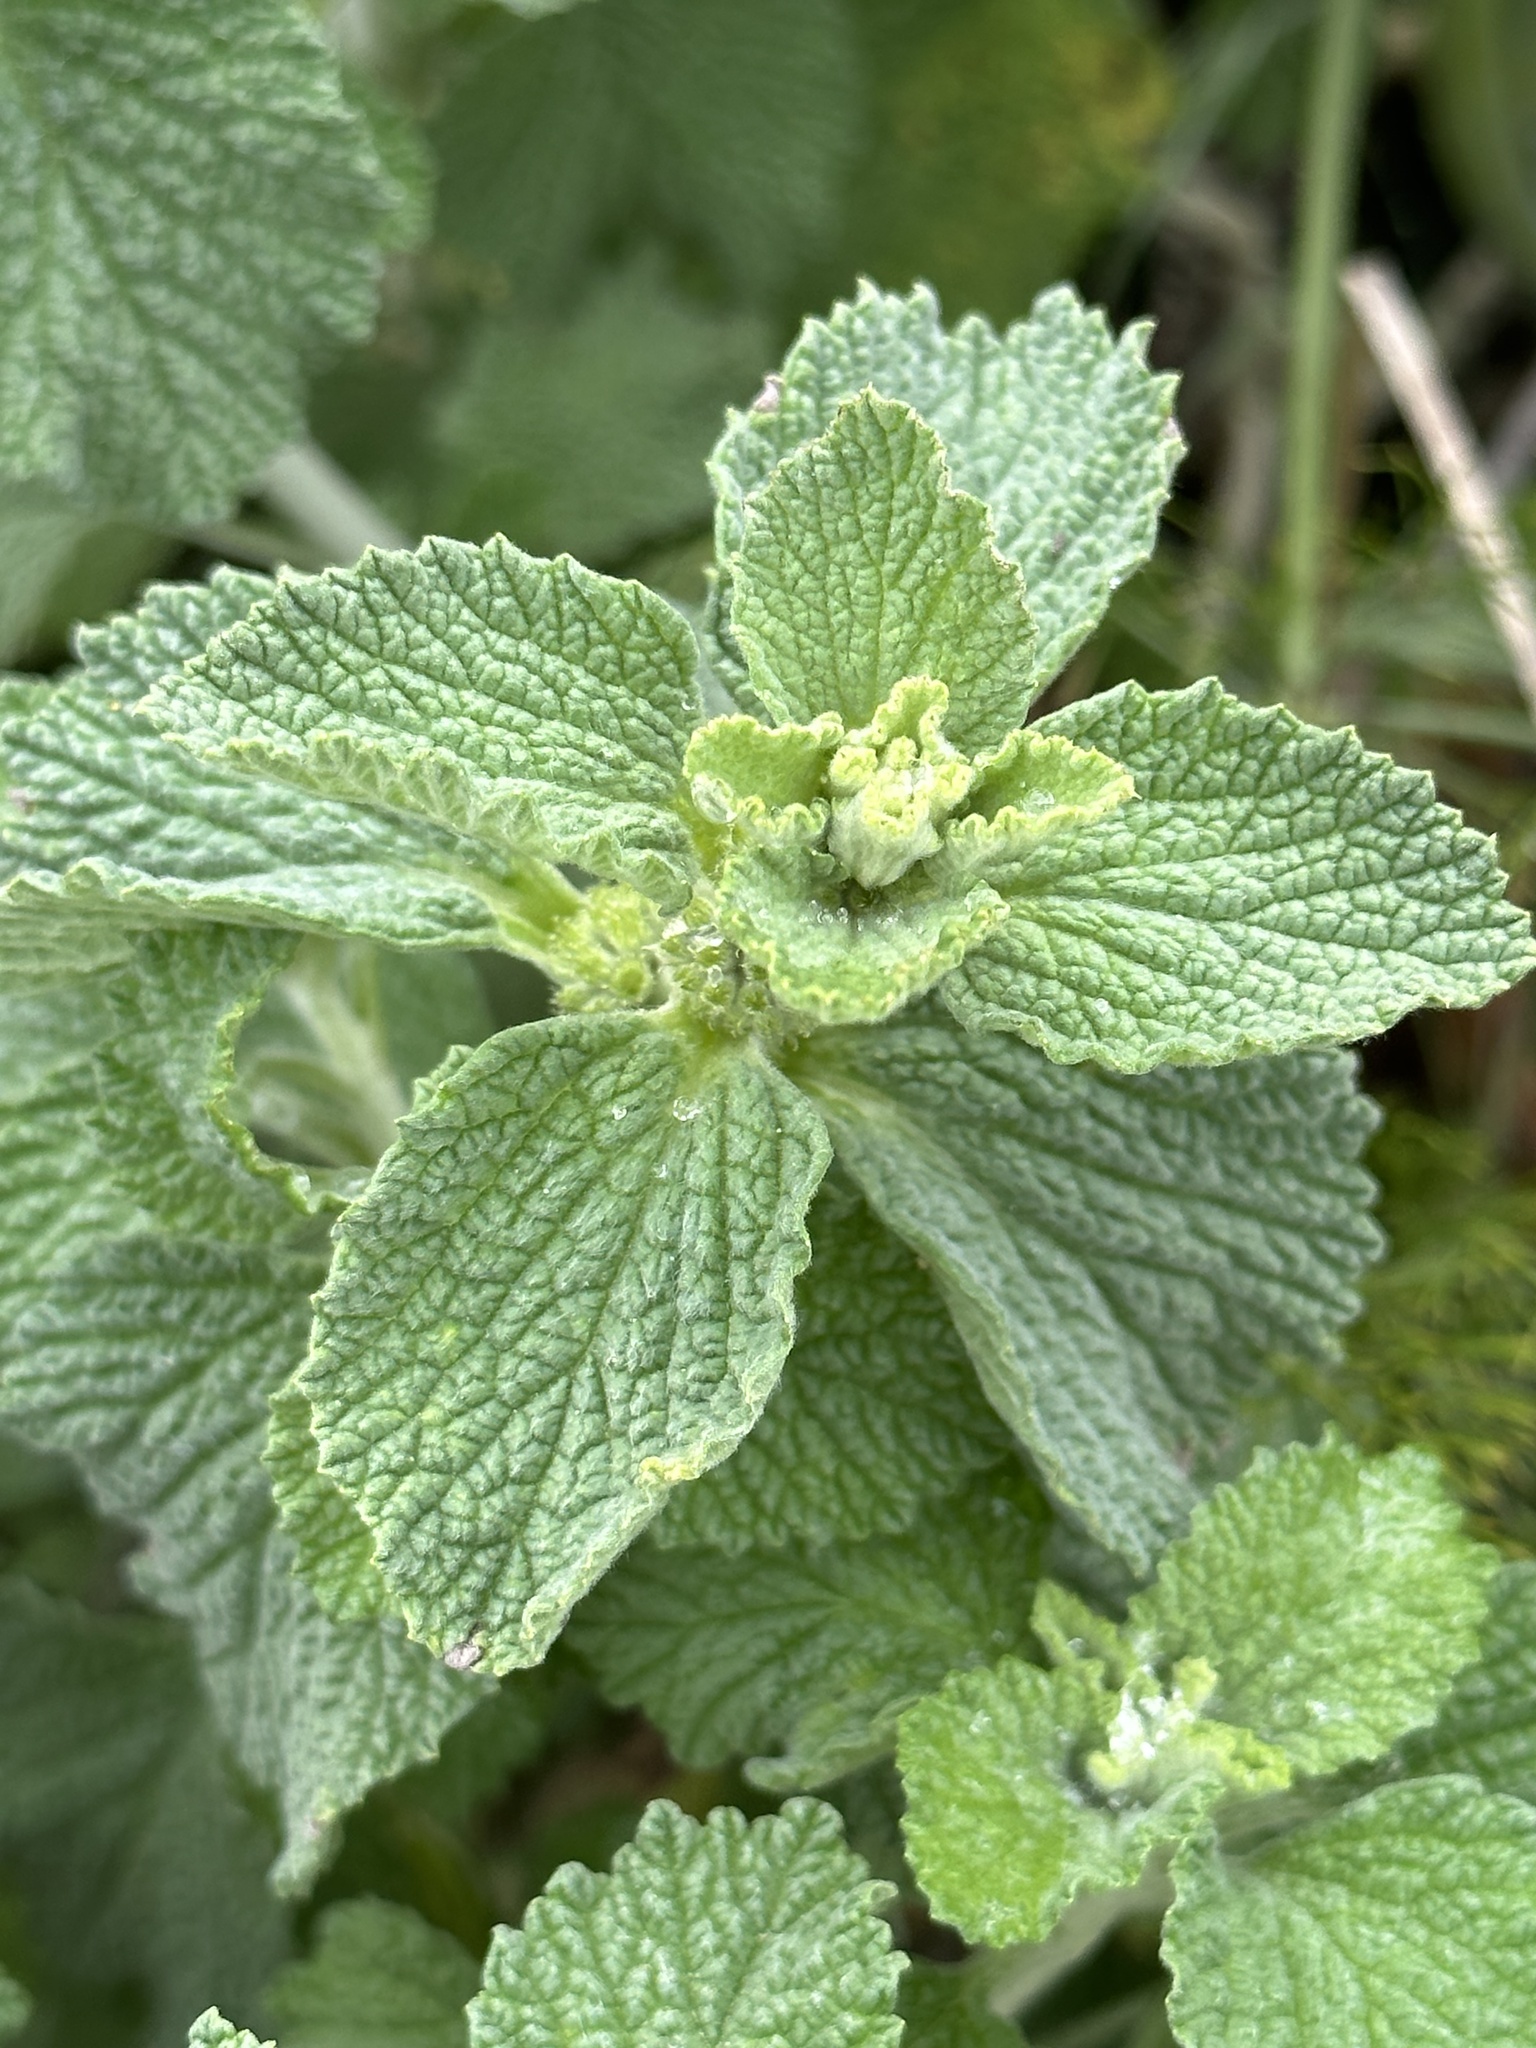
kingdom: Plantae
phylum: Tracheophyta
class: Magnoliopsida
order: Lamiales
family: Lamiaceae
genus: Marrubium
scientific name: Marrubium vulgare
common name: Horehound
